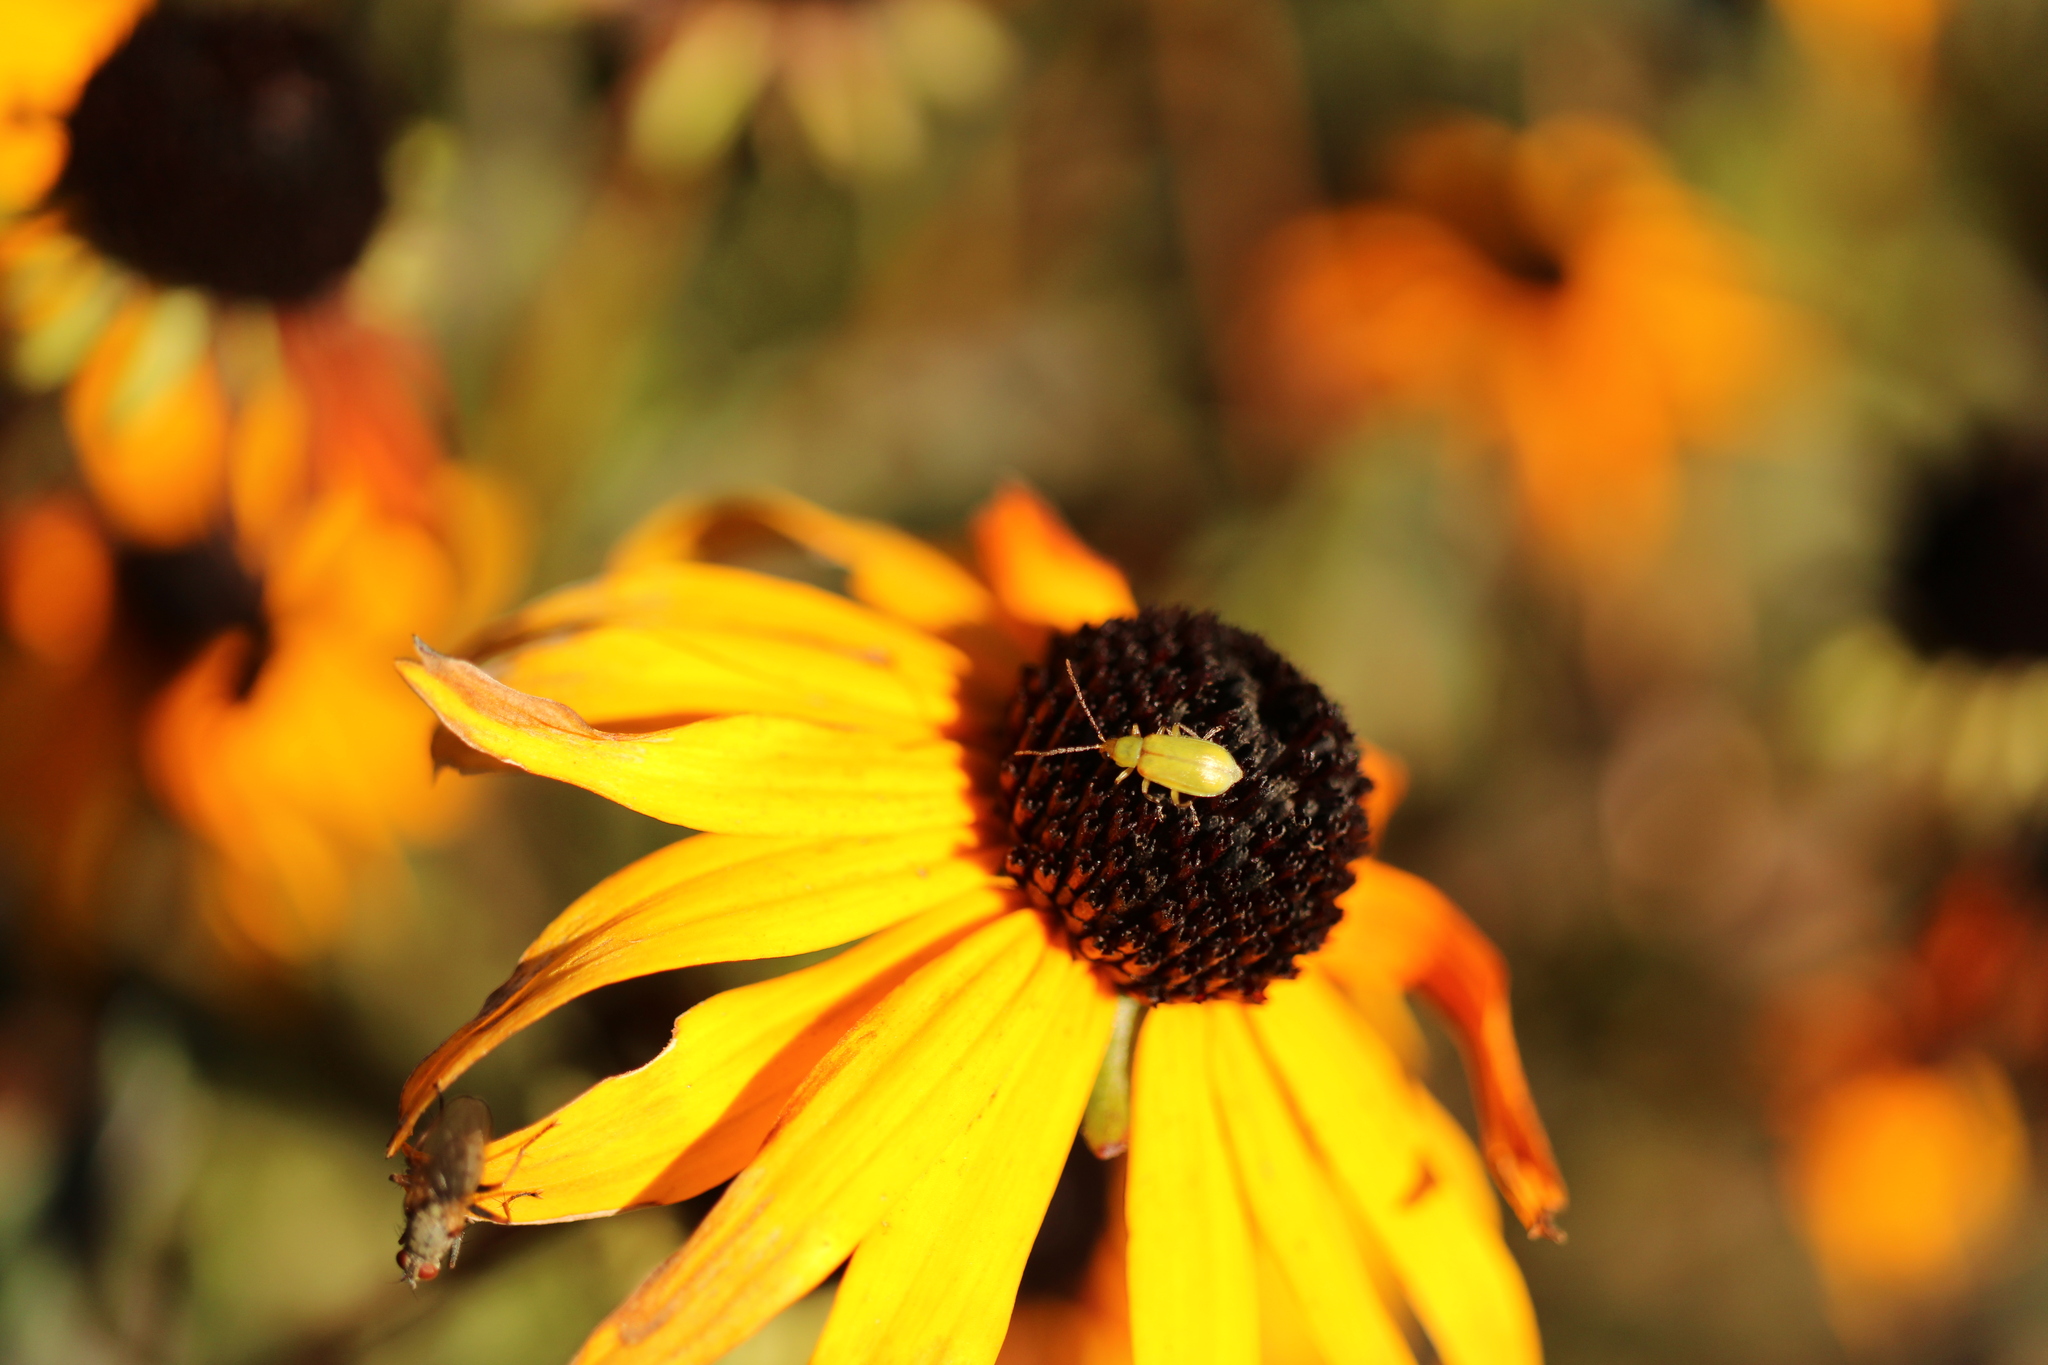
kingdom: Animalia
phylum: Arthropoda
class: Insecta
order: Coleoptera
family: Chrysomelidae
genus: Diabrotica
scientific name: Diabrotica barberi
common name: Northern corn rootworm
